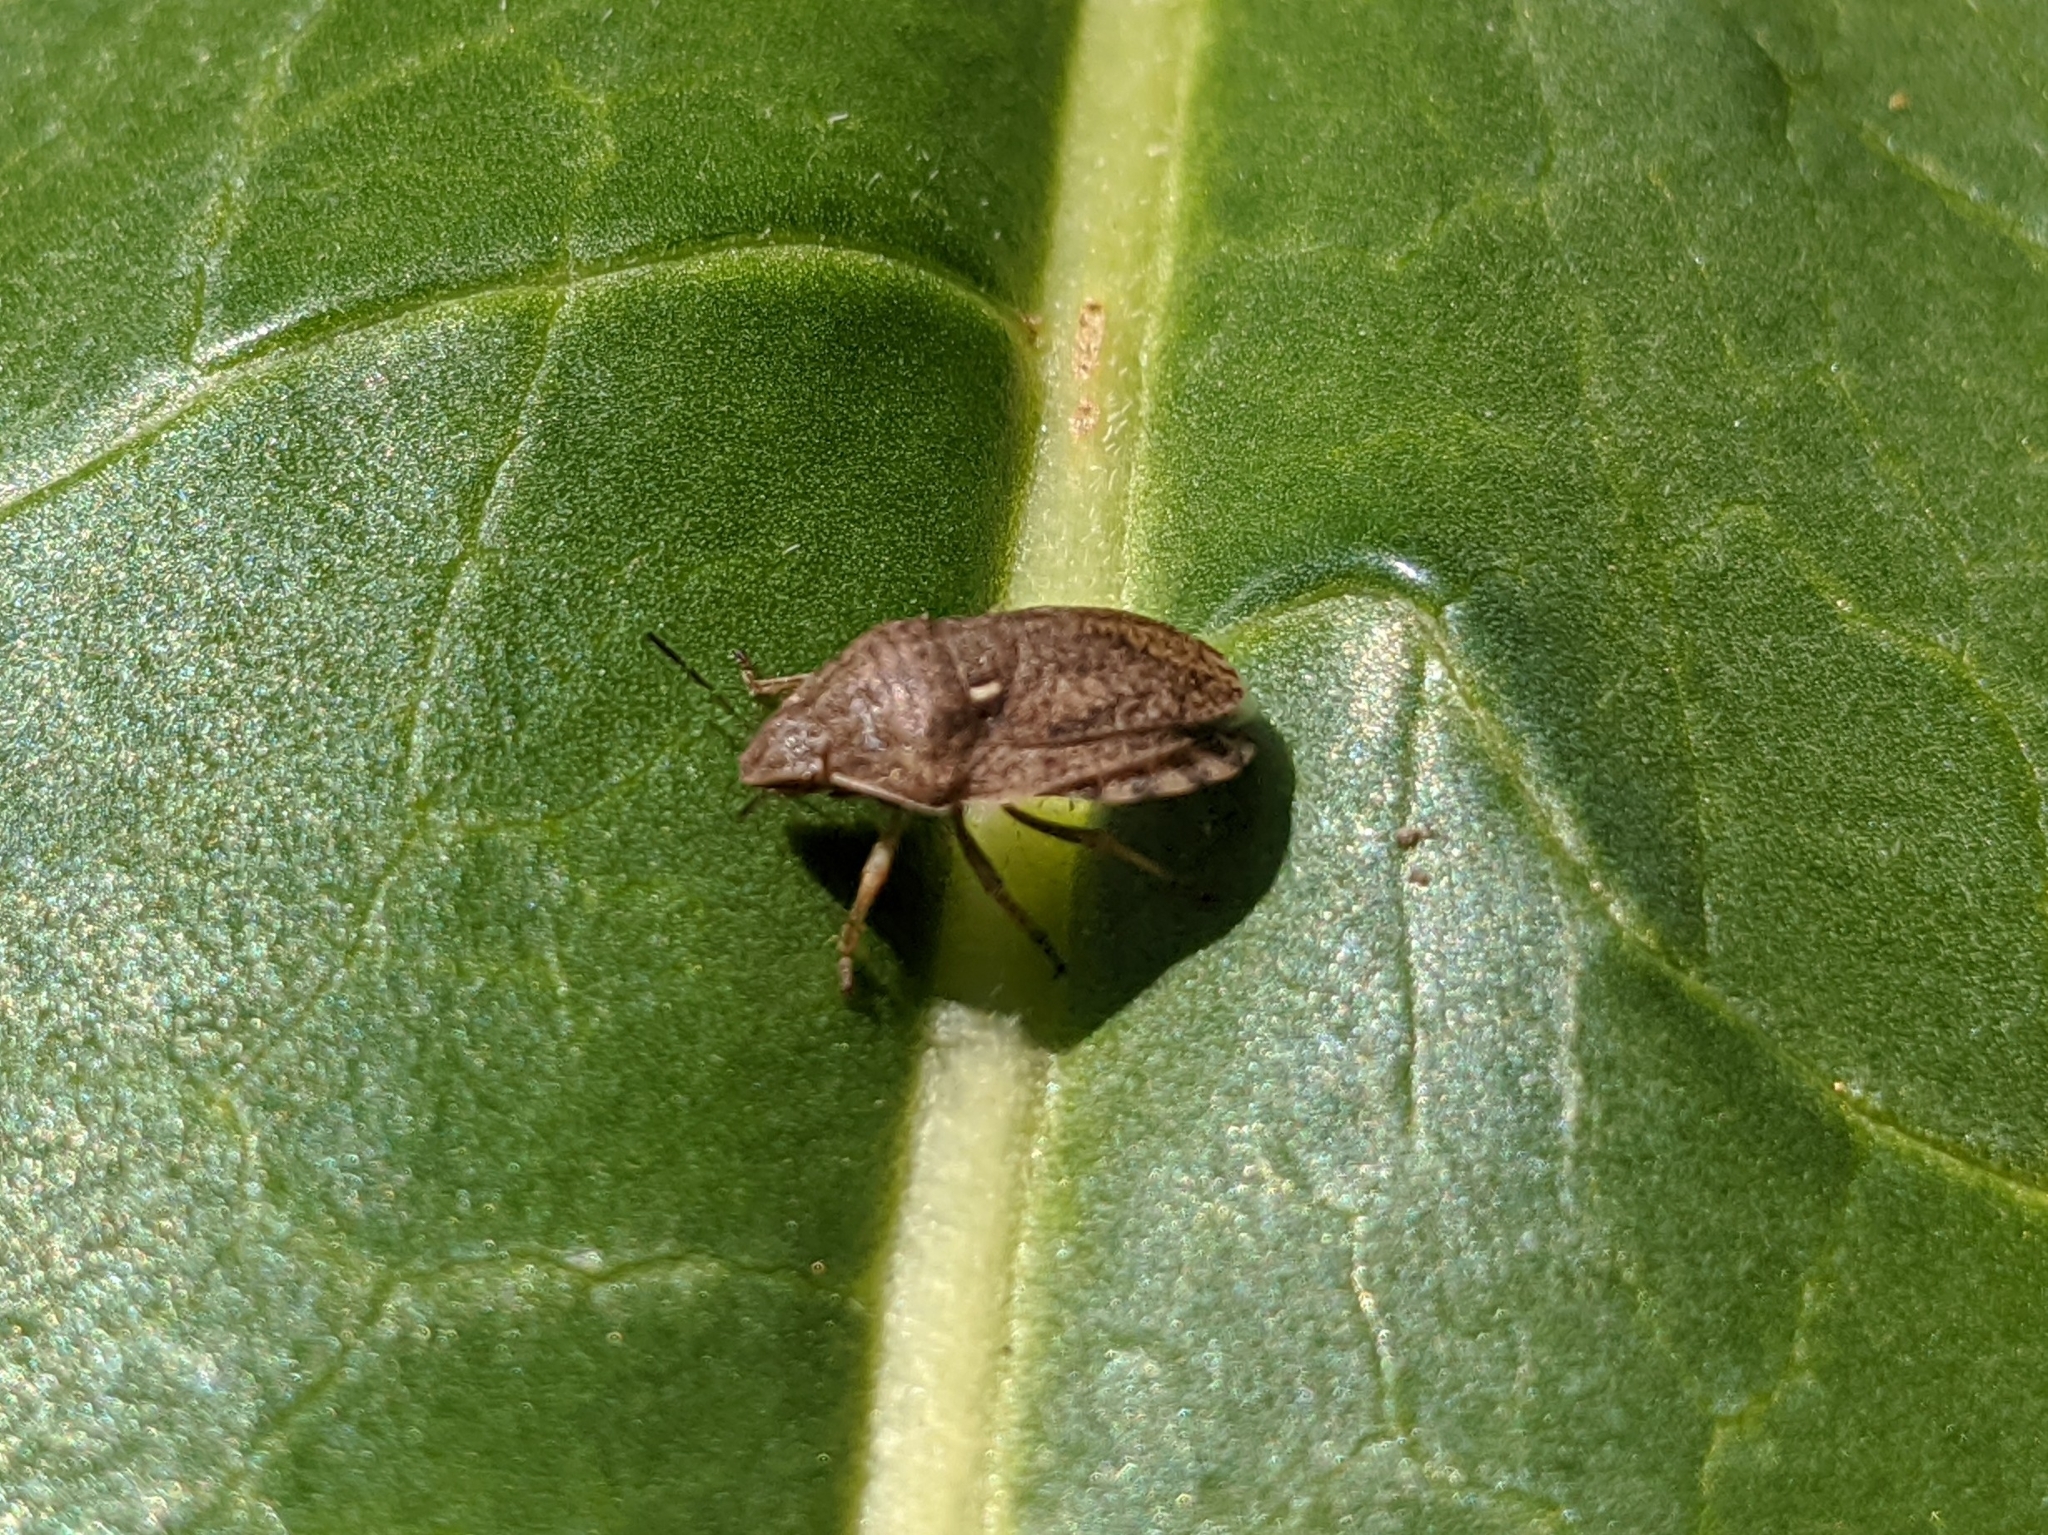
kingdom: Animalia
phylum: Arthropoda
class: Insecta
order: Hemiptera
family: Scutelleridae
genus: Eurygaster
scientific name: Eurygaster maura
